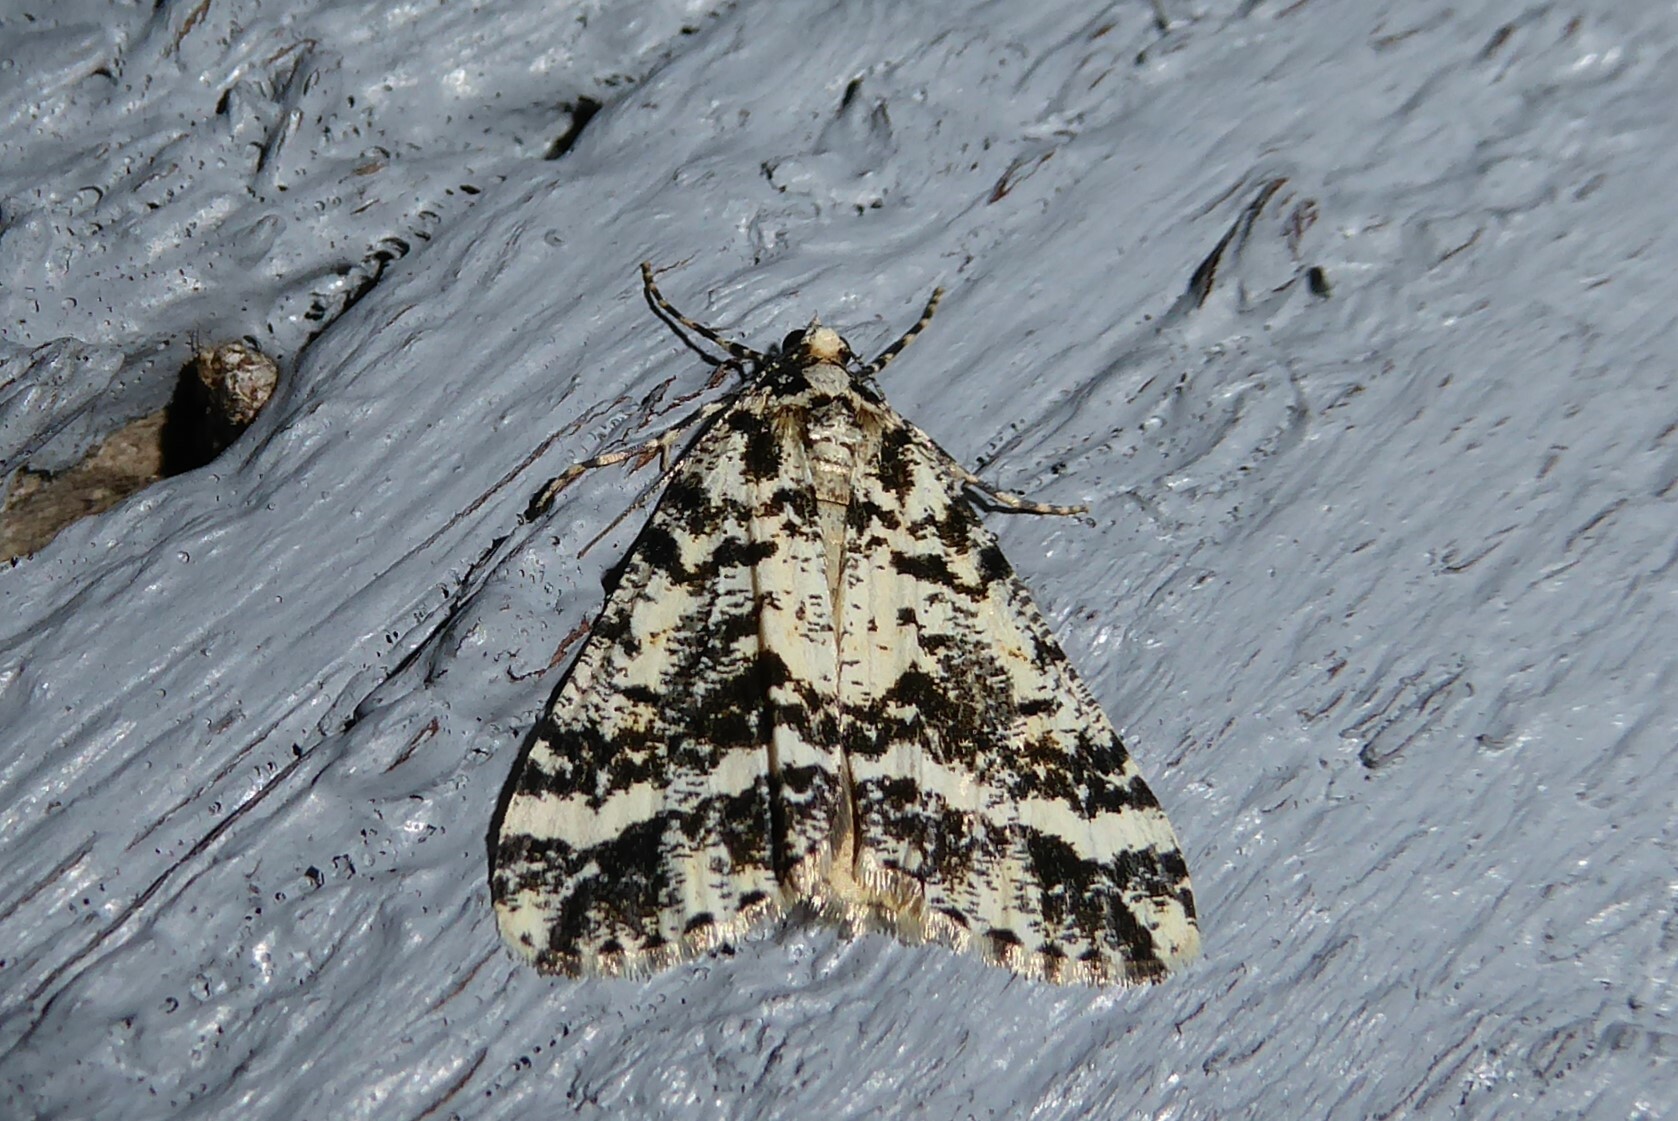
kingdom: Animalia
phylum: Arthropoda
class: Insecta
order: Lepidoptera
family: Geometridae
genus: Pseudocoremia
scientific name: Pseudocoremia leucelaea
